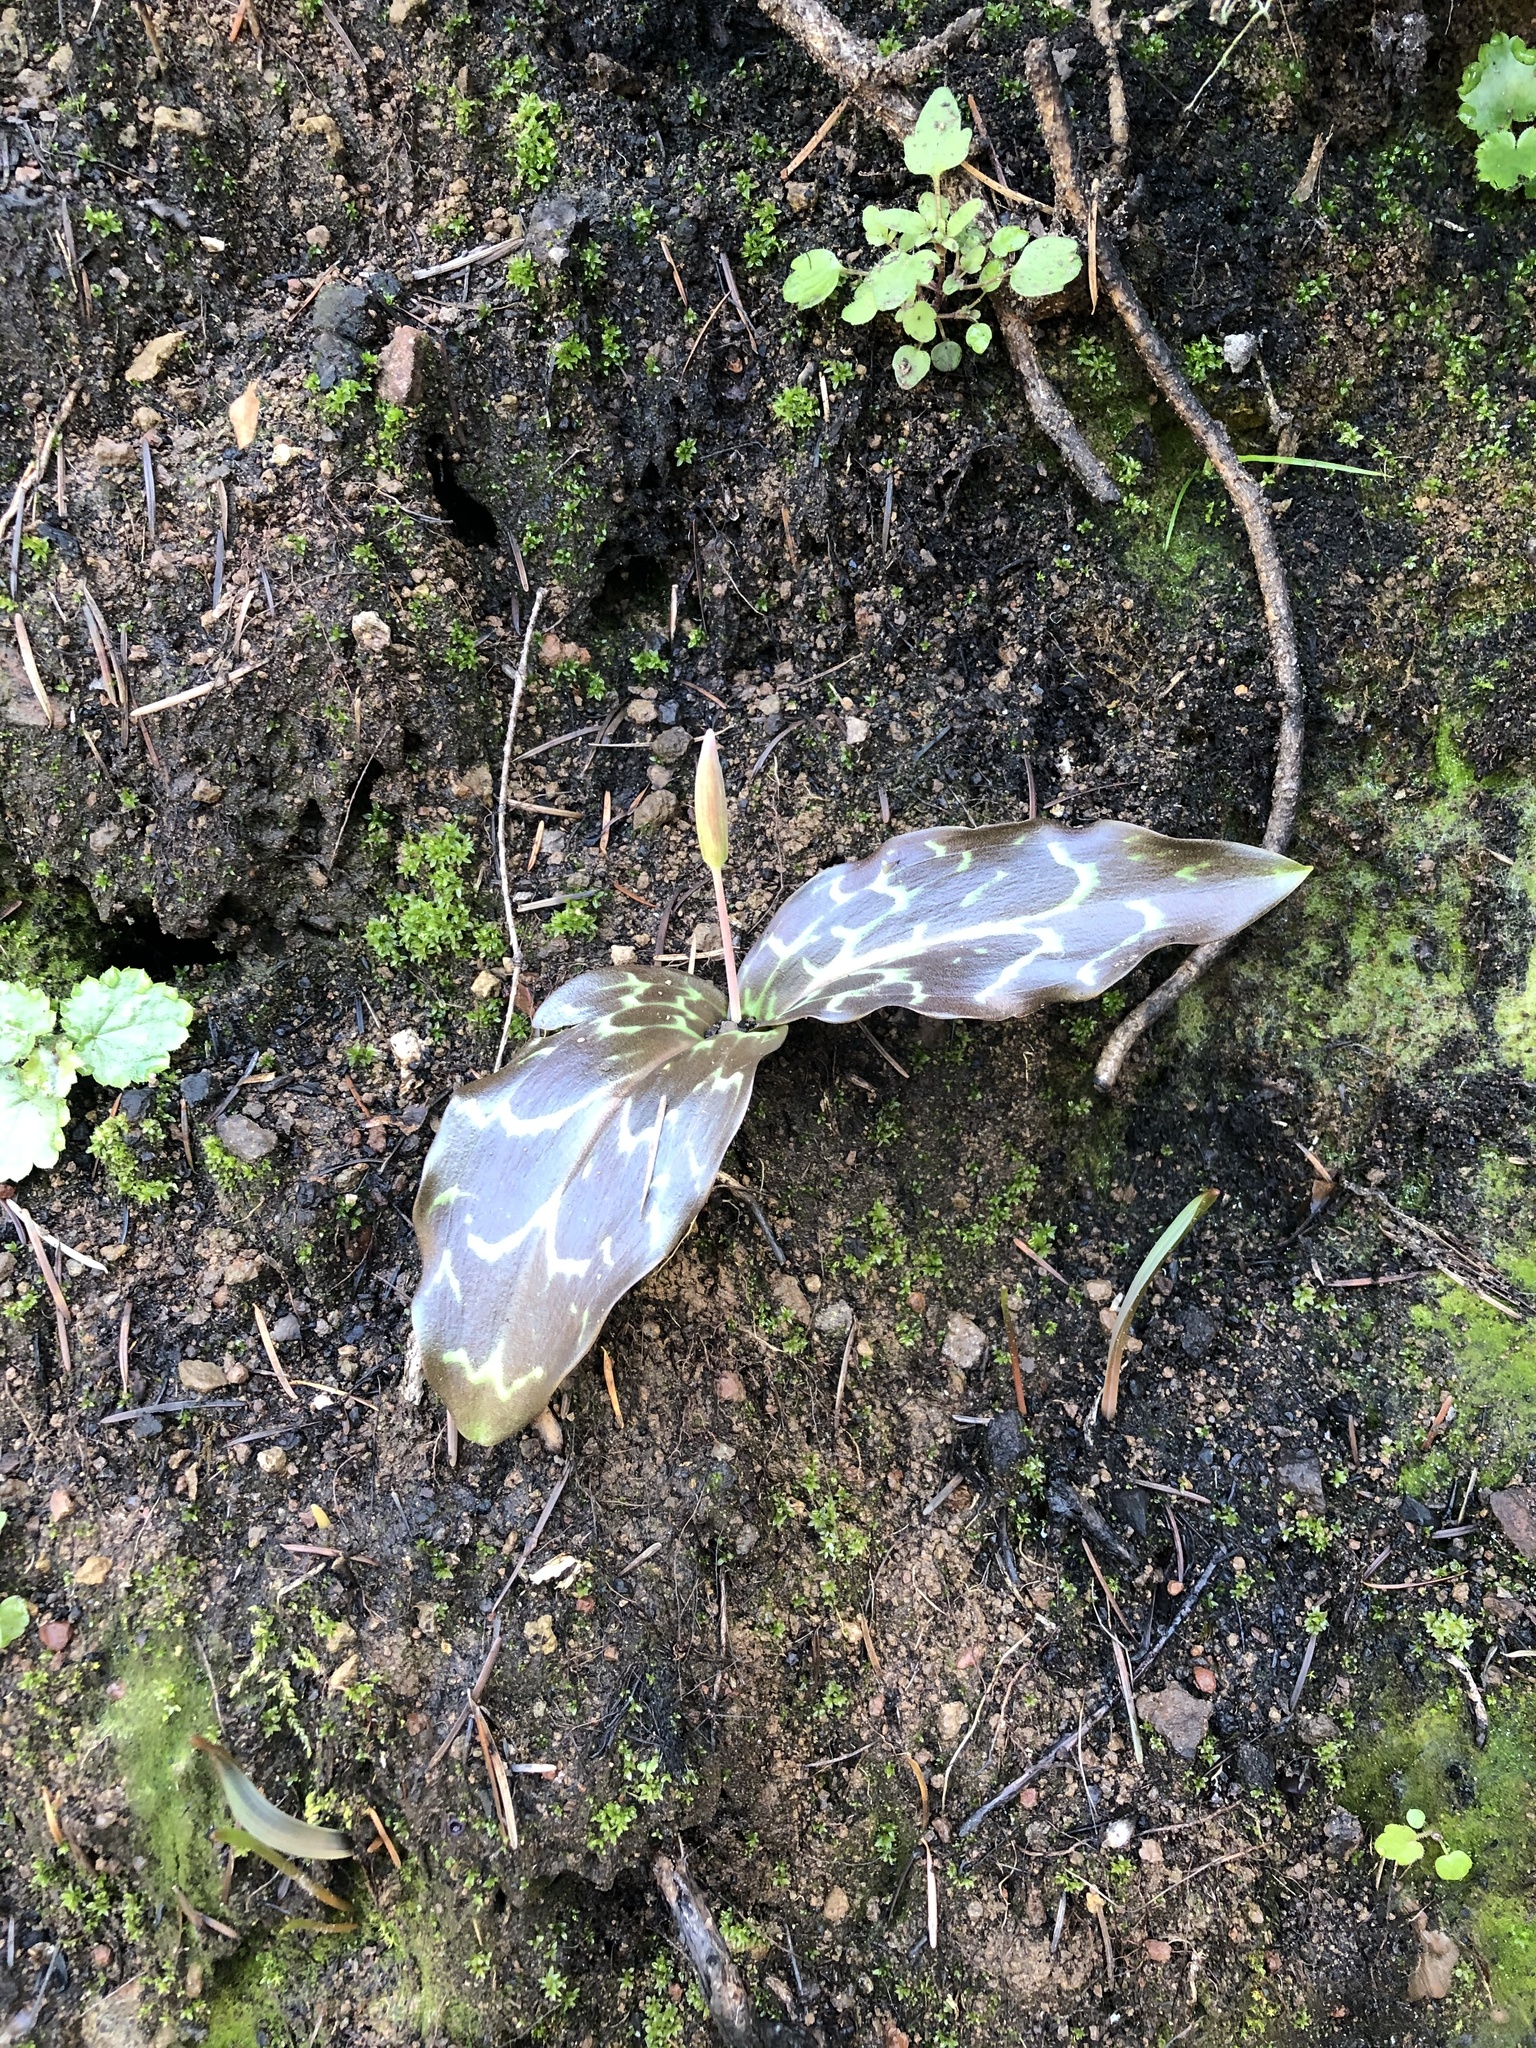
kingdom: Plantae
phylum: Tracheophyta
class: Liliopsida
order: Liliales
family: Liliaceae
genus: Erythronium
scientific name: Erythronium oregonum
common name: Giant adder's-tongue
